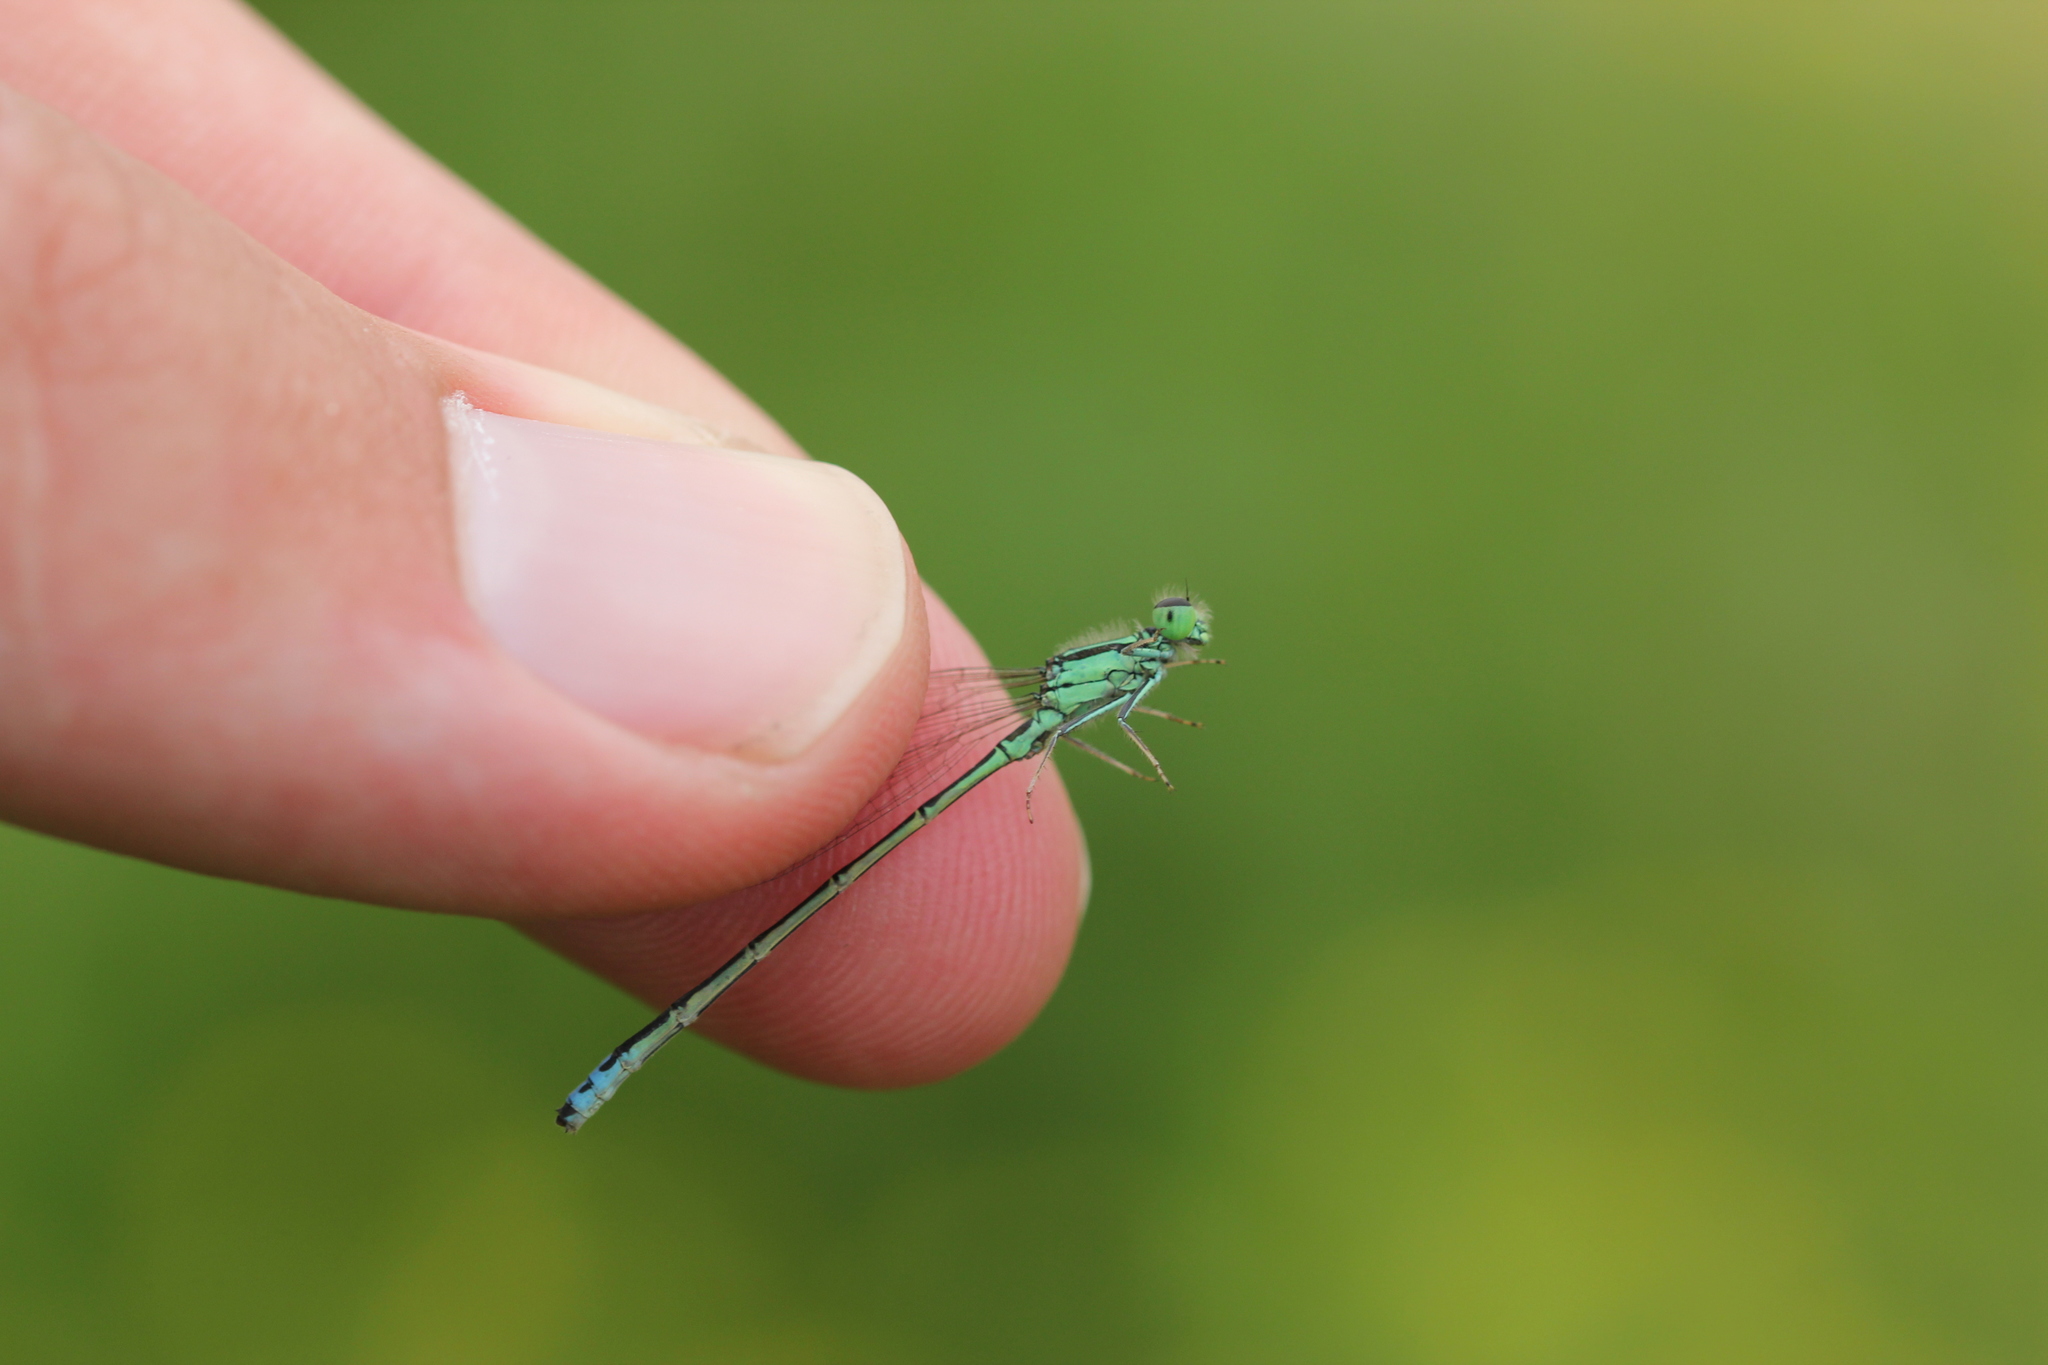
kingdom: Animalia
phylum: Arthropoda
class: Insecta
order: Odonata
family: Coenagrionidae
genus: Ischnura
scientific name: Ischnura verticalis
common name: Eastern forktail
